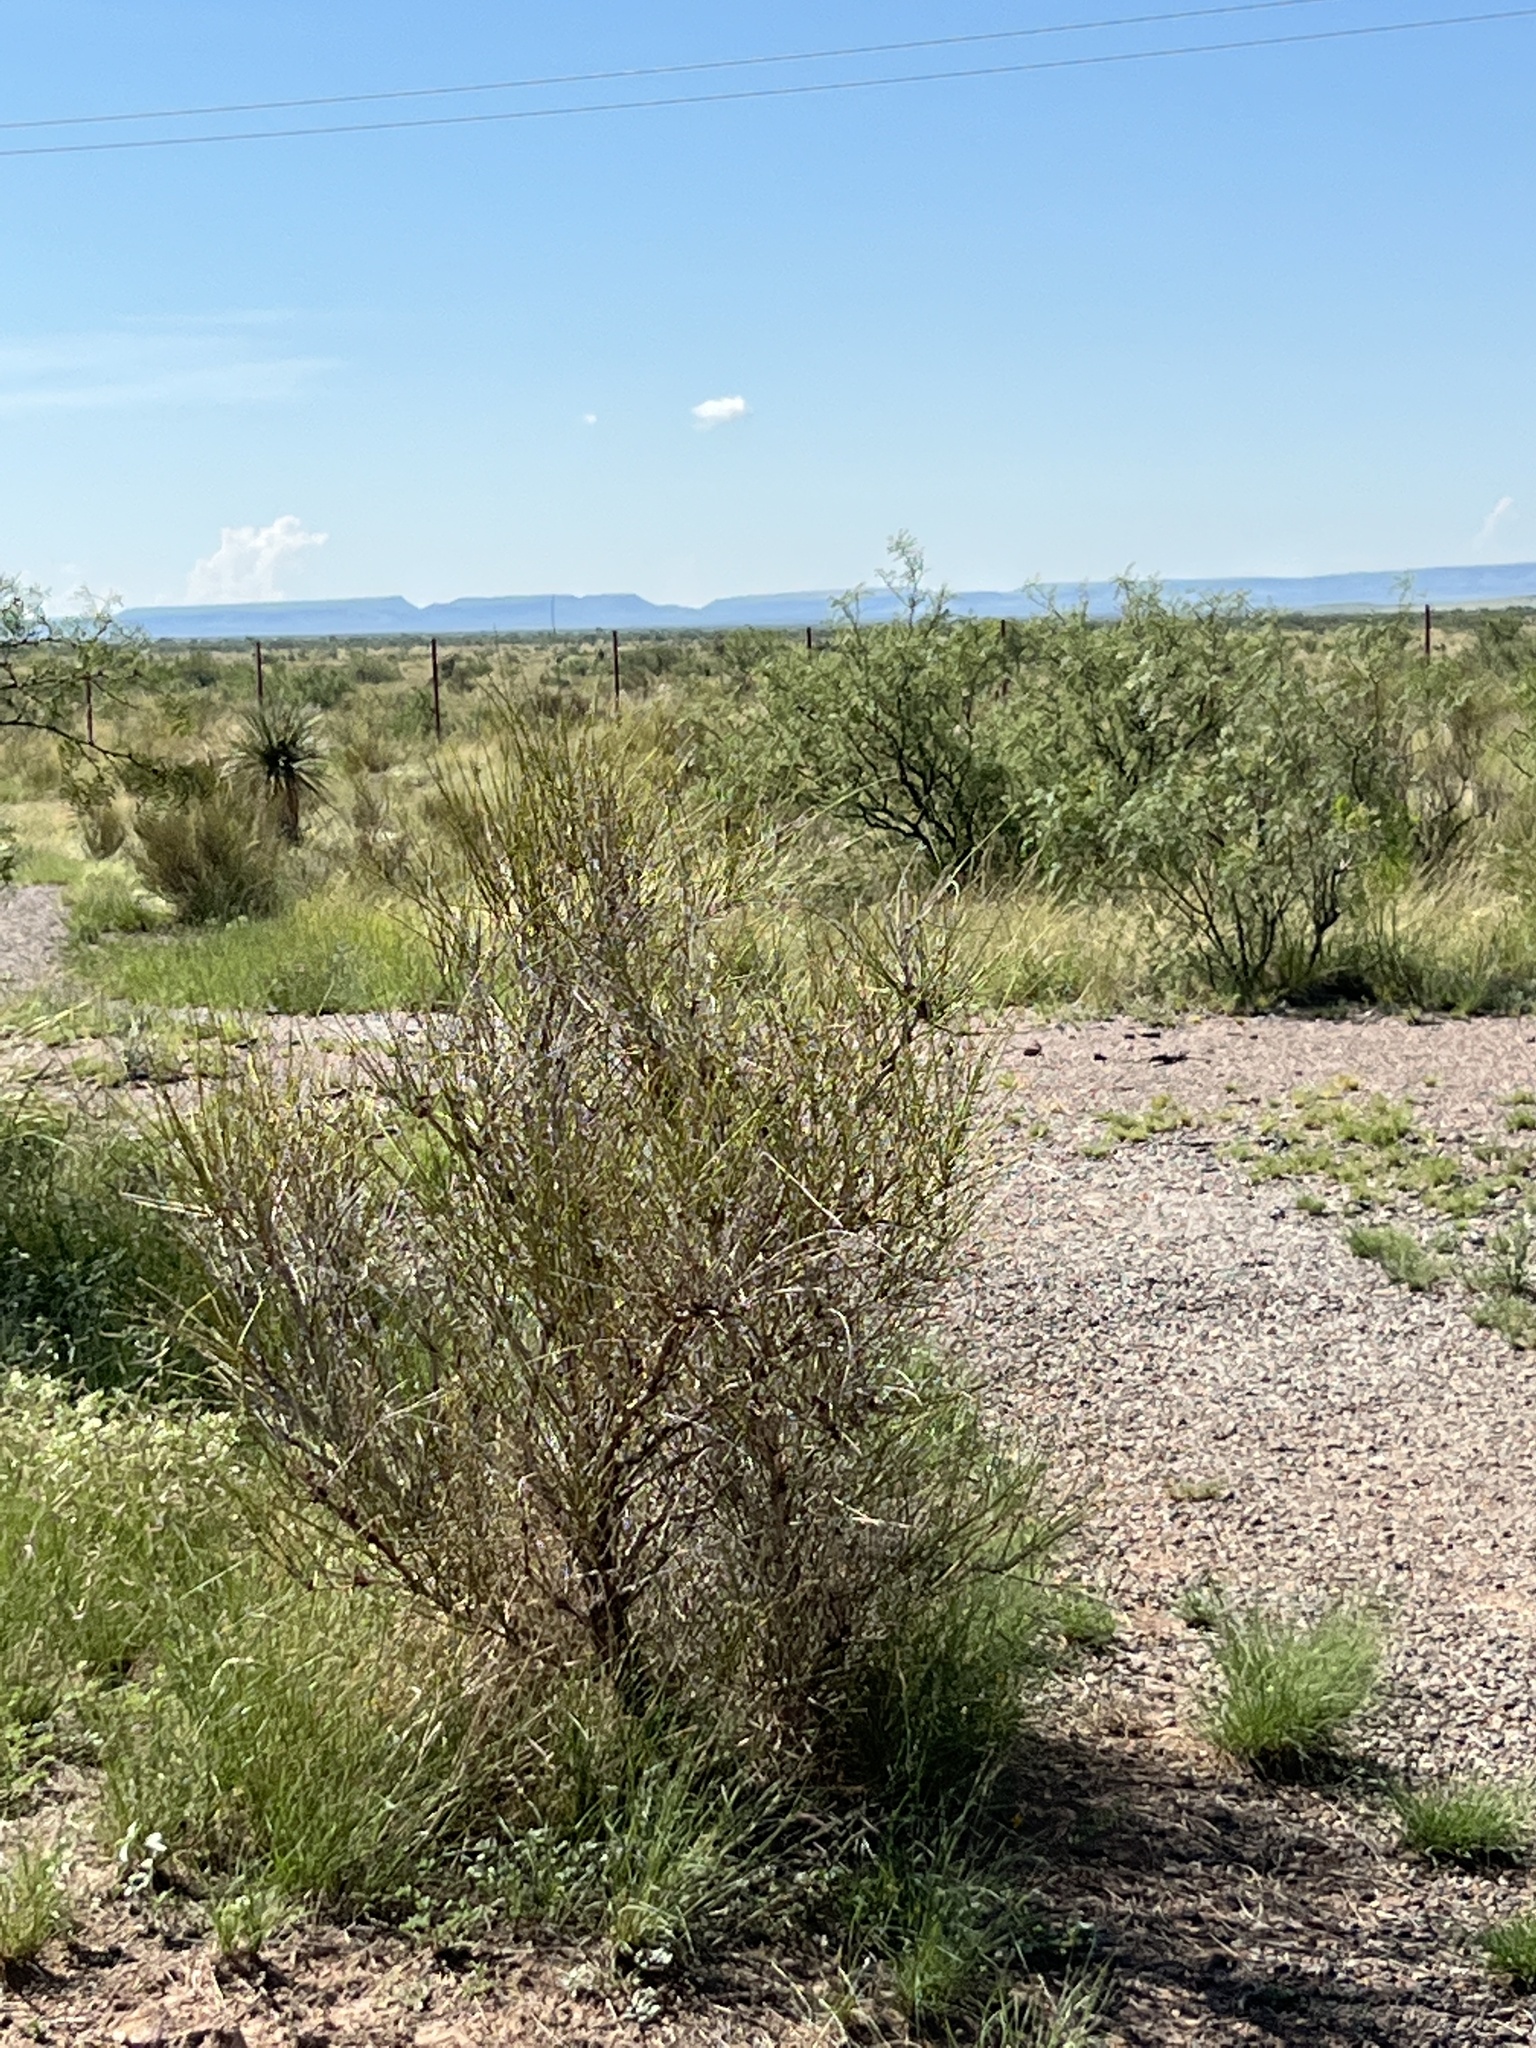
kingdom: Plantae
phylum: Tracheophyta
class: Gnetopsida
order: Ephedrales
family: Ephedraceae
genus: Ephedra
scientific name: Ephedra trifurca
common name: Mexican-tea
